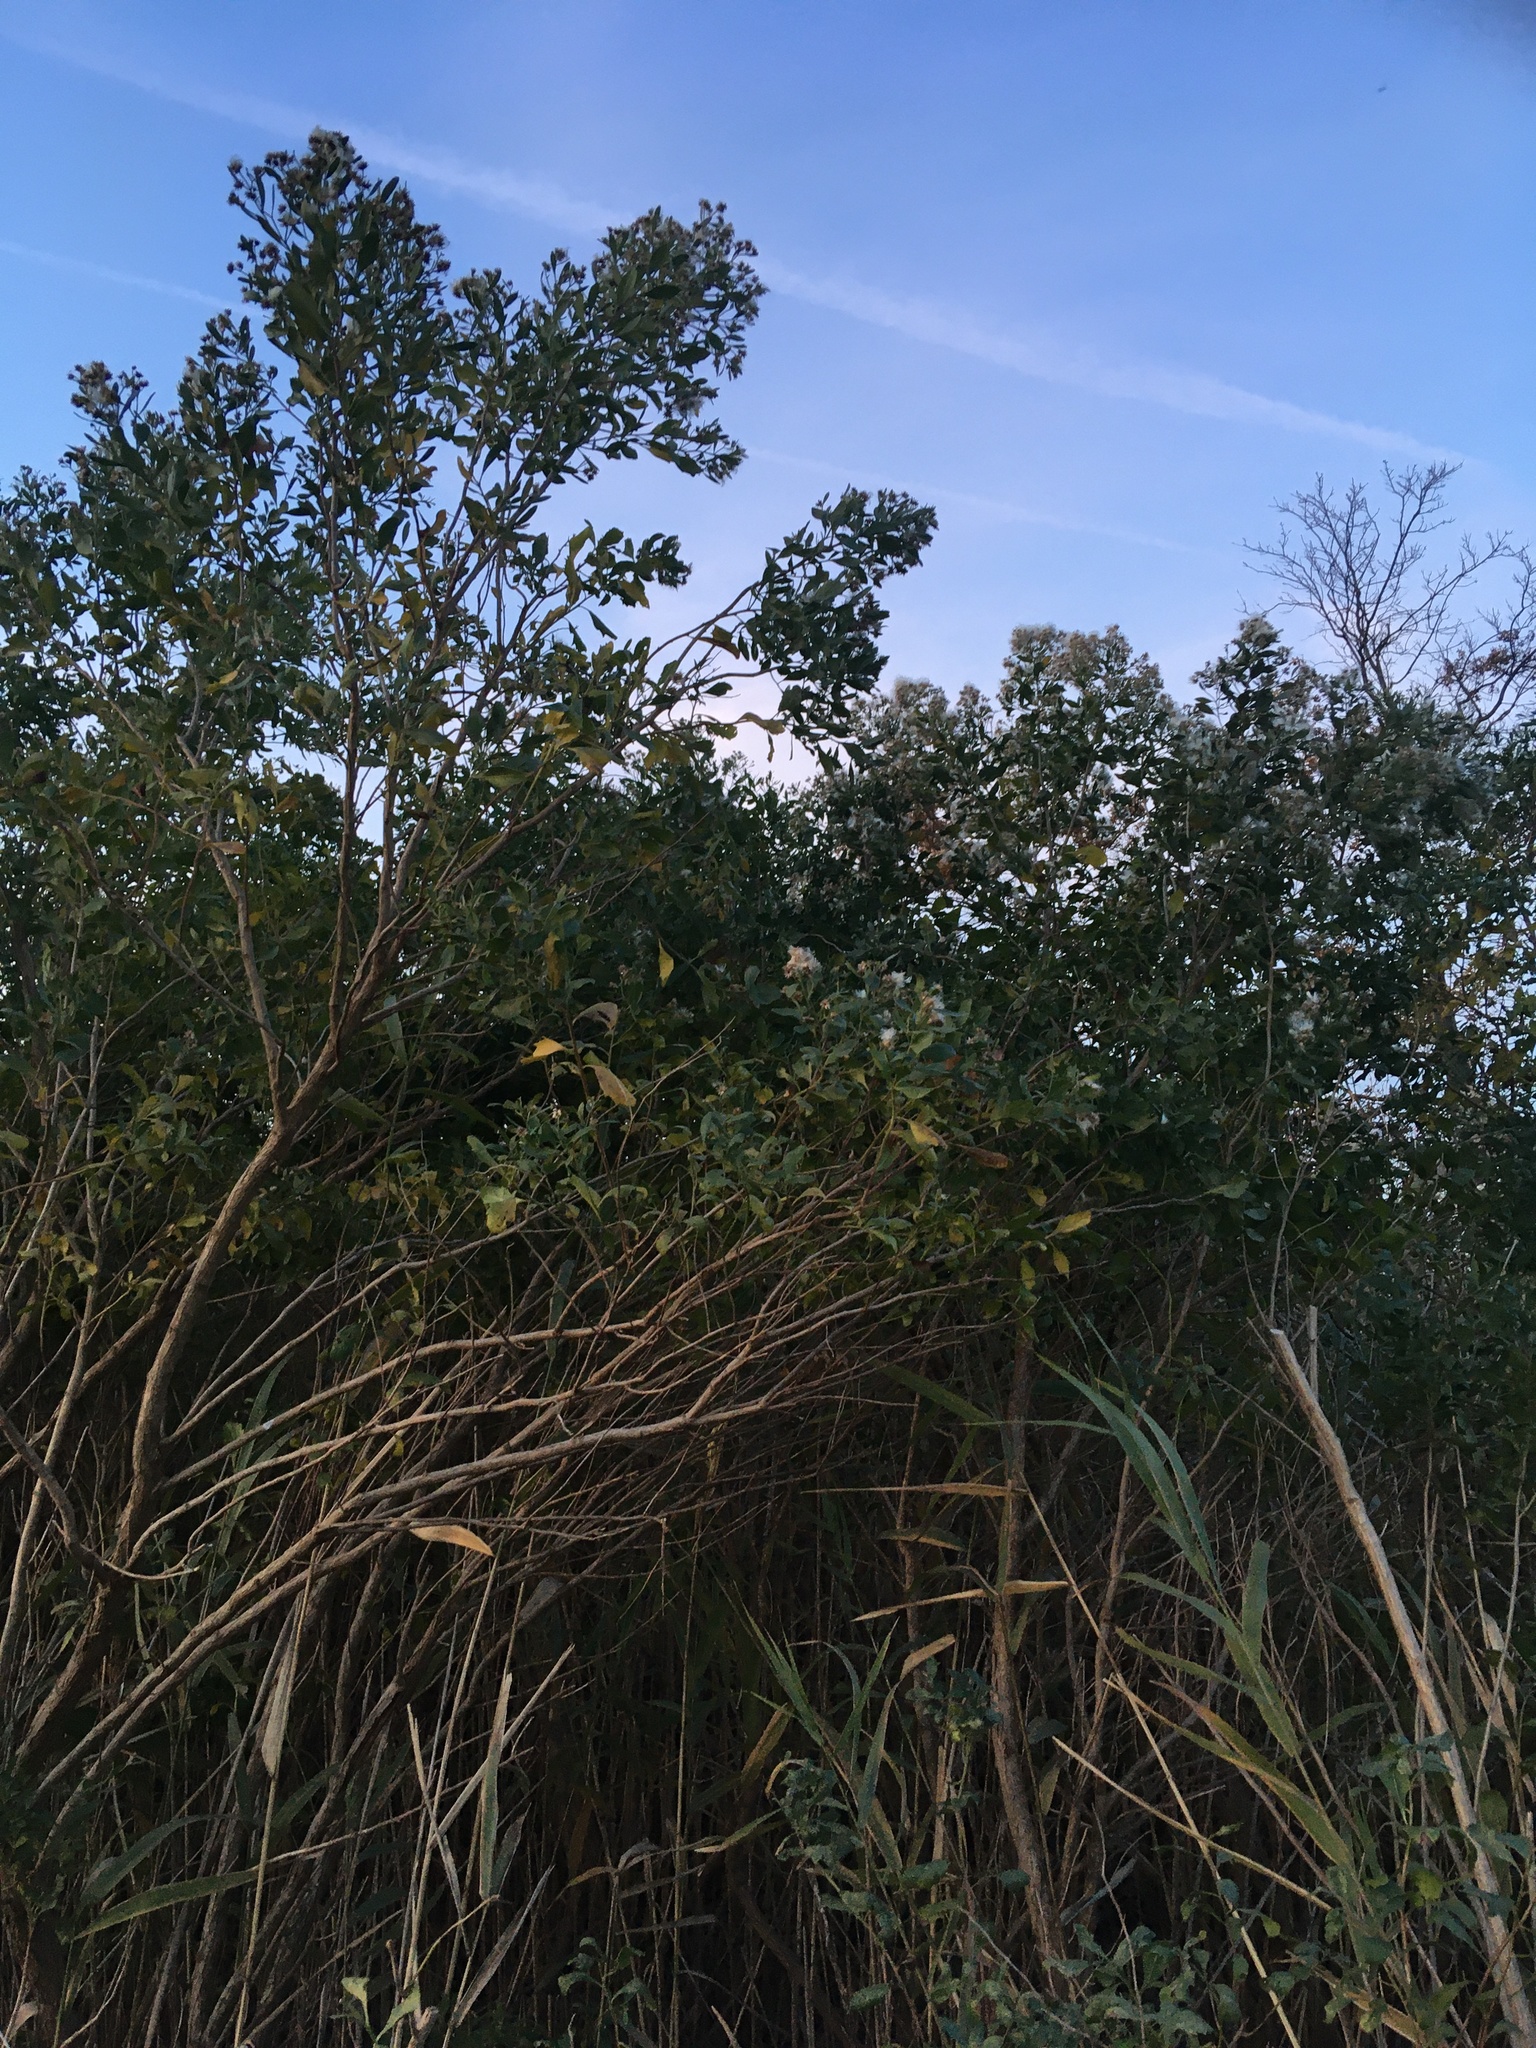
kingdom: Plantae
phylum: Tracheophyta
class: Magnoliopsida
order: Asterales
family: Asteraceae
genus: Baccharis
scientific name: Baccharis halimifolia
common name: Eastern baccharis
